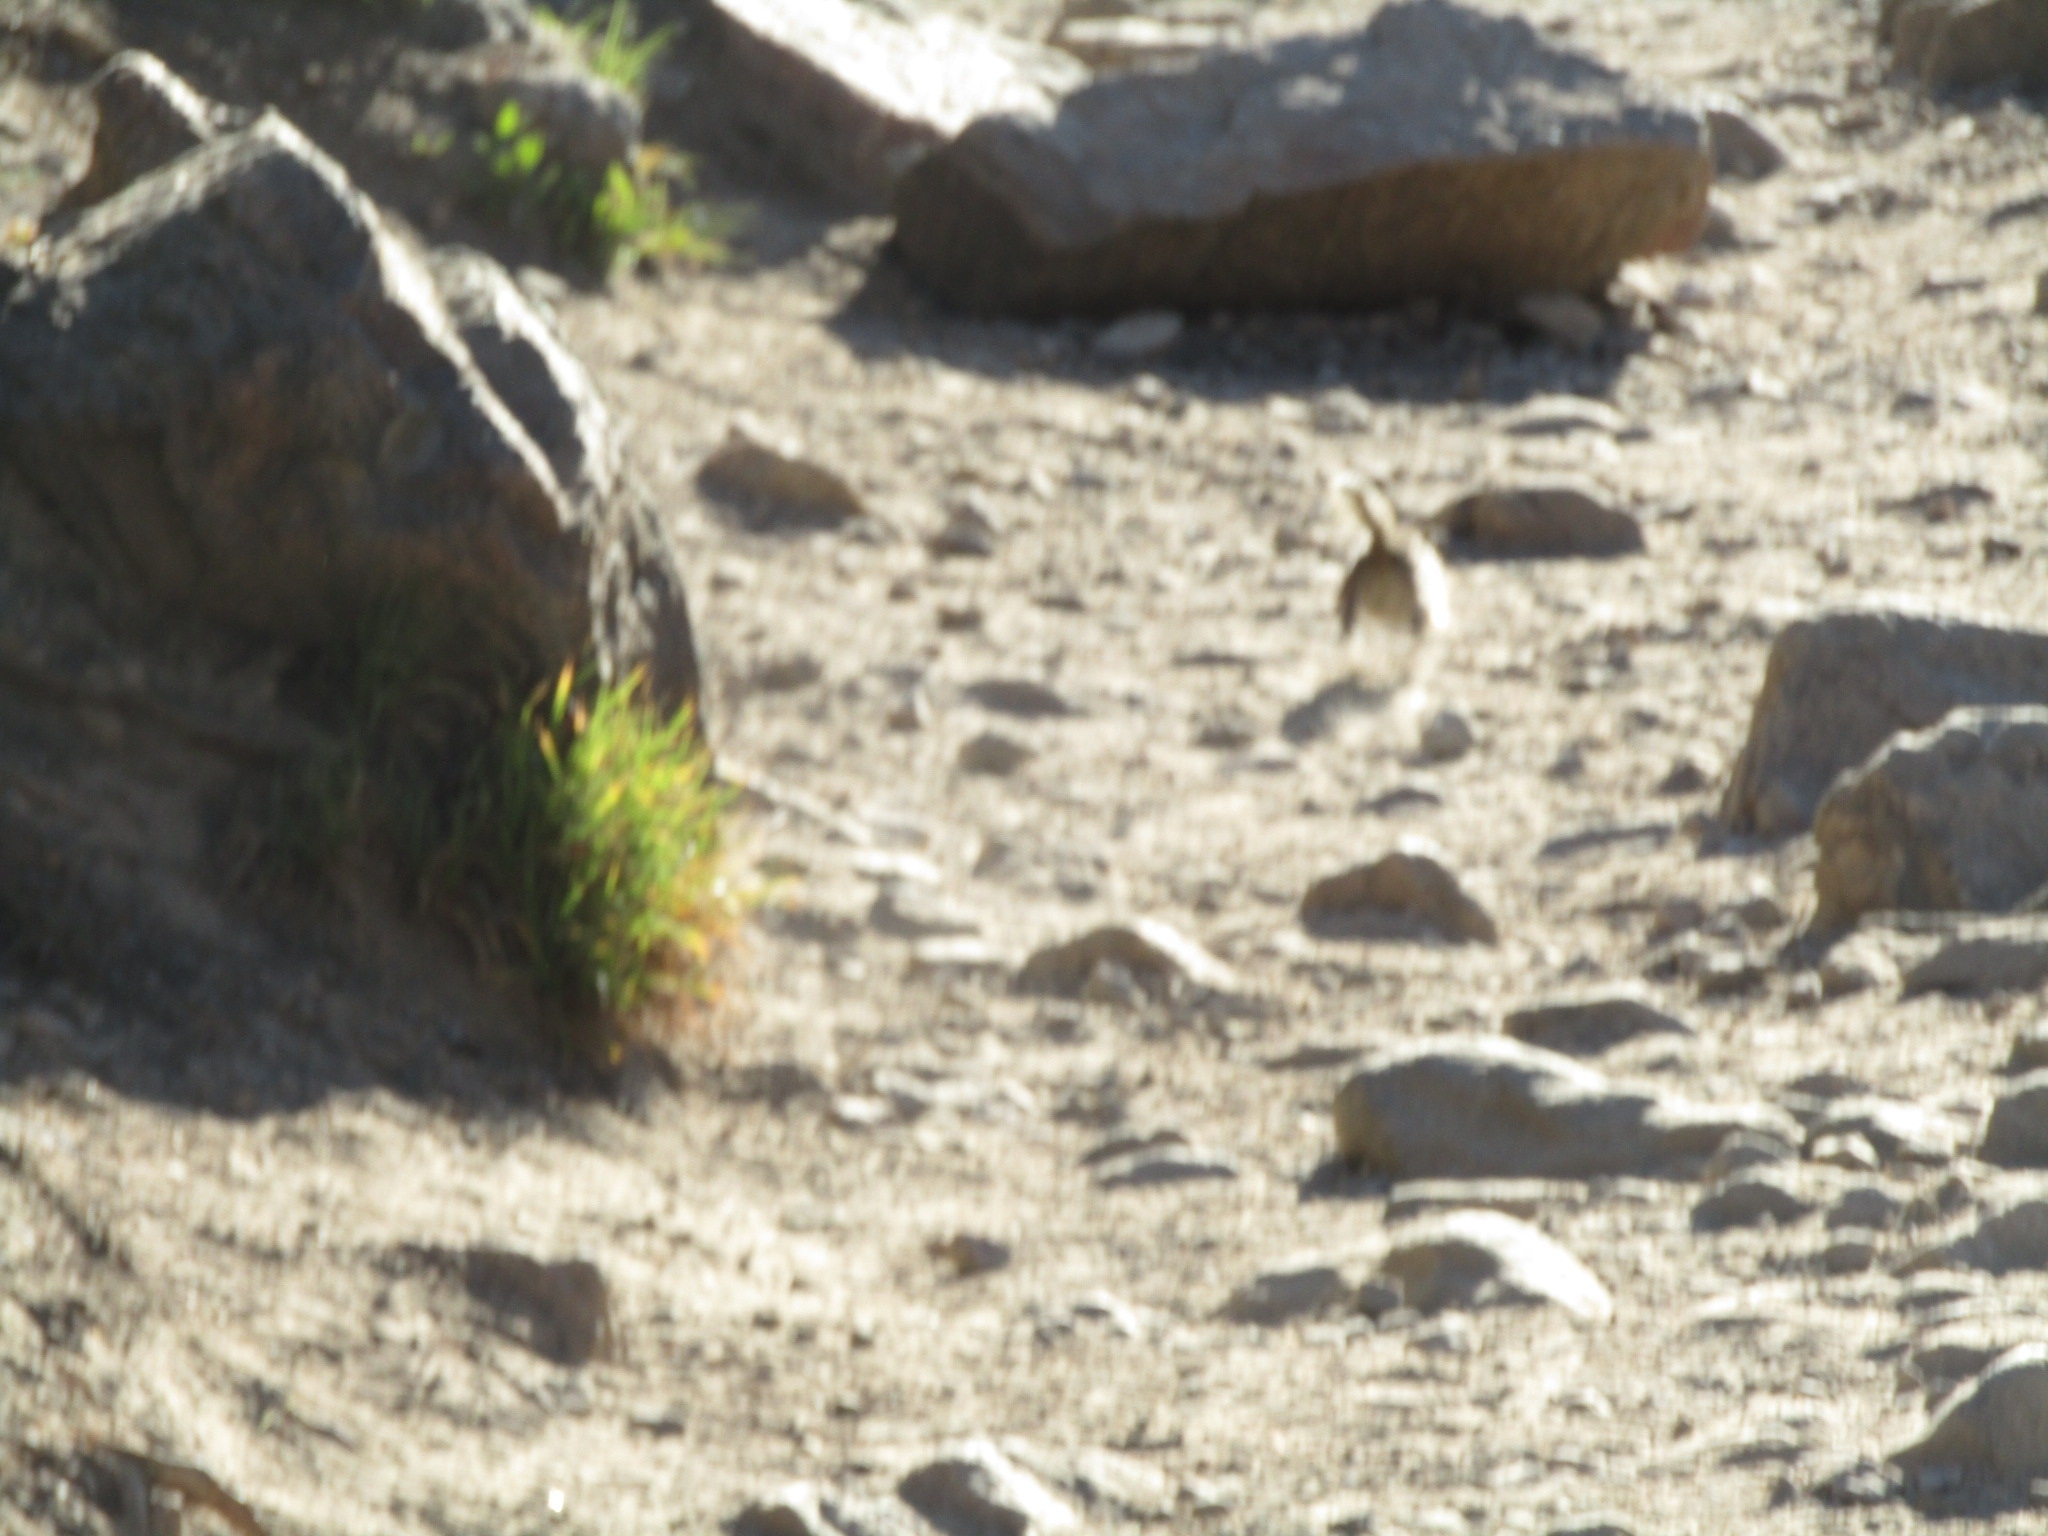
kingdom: Animalia
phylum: Chordata
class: Mammalia
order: Rodentia
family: Sciuridae
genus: Callospermophilus
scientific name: Callospermophilus lateralis
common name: Golden-mantled ground squirrel
